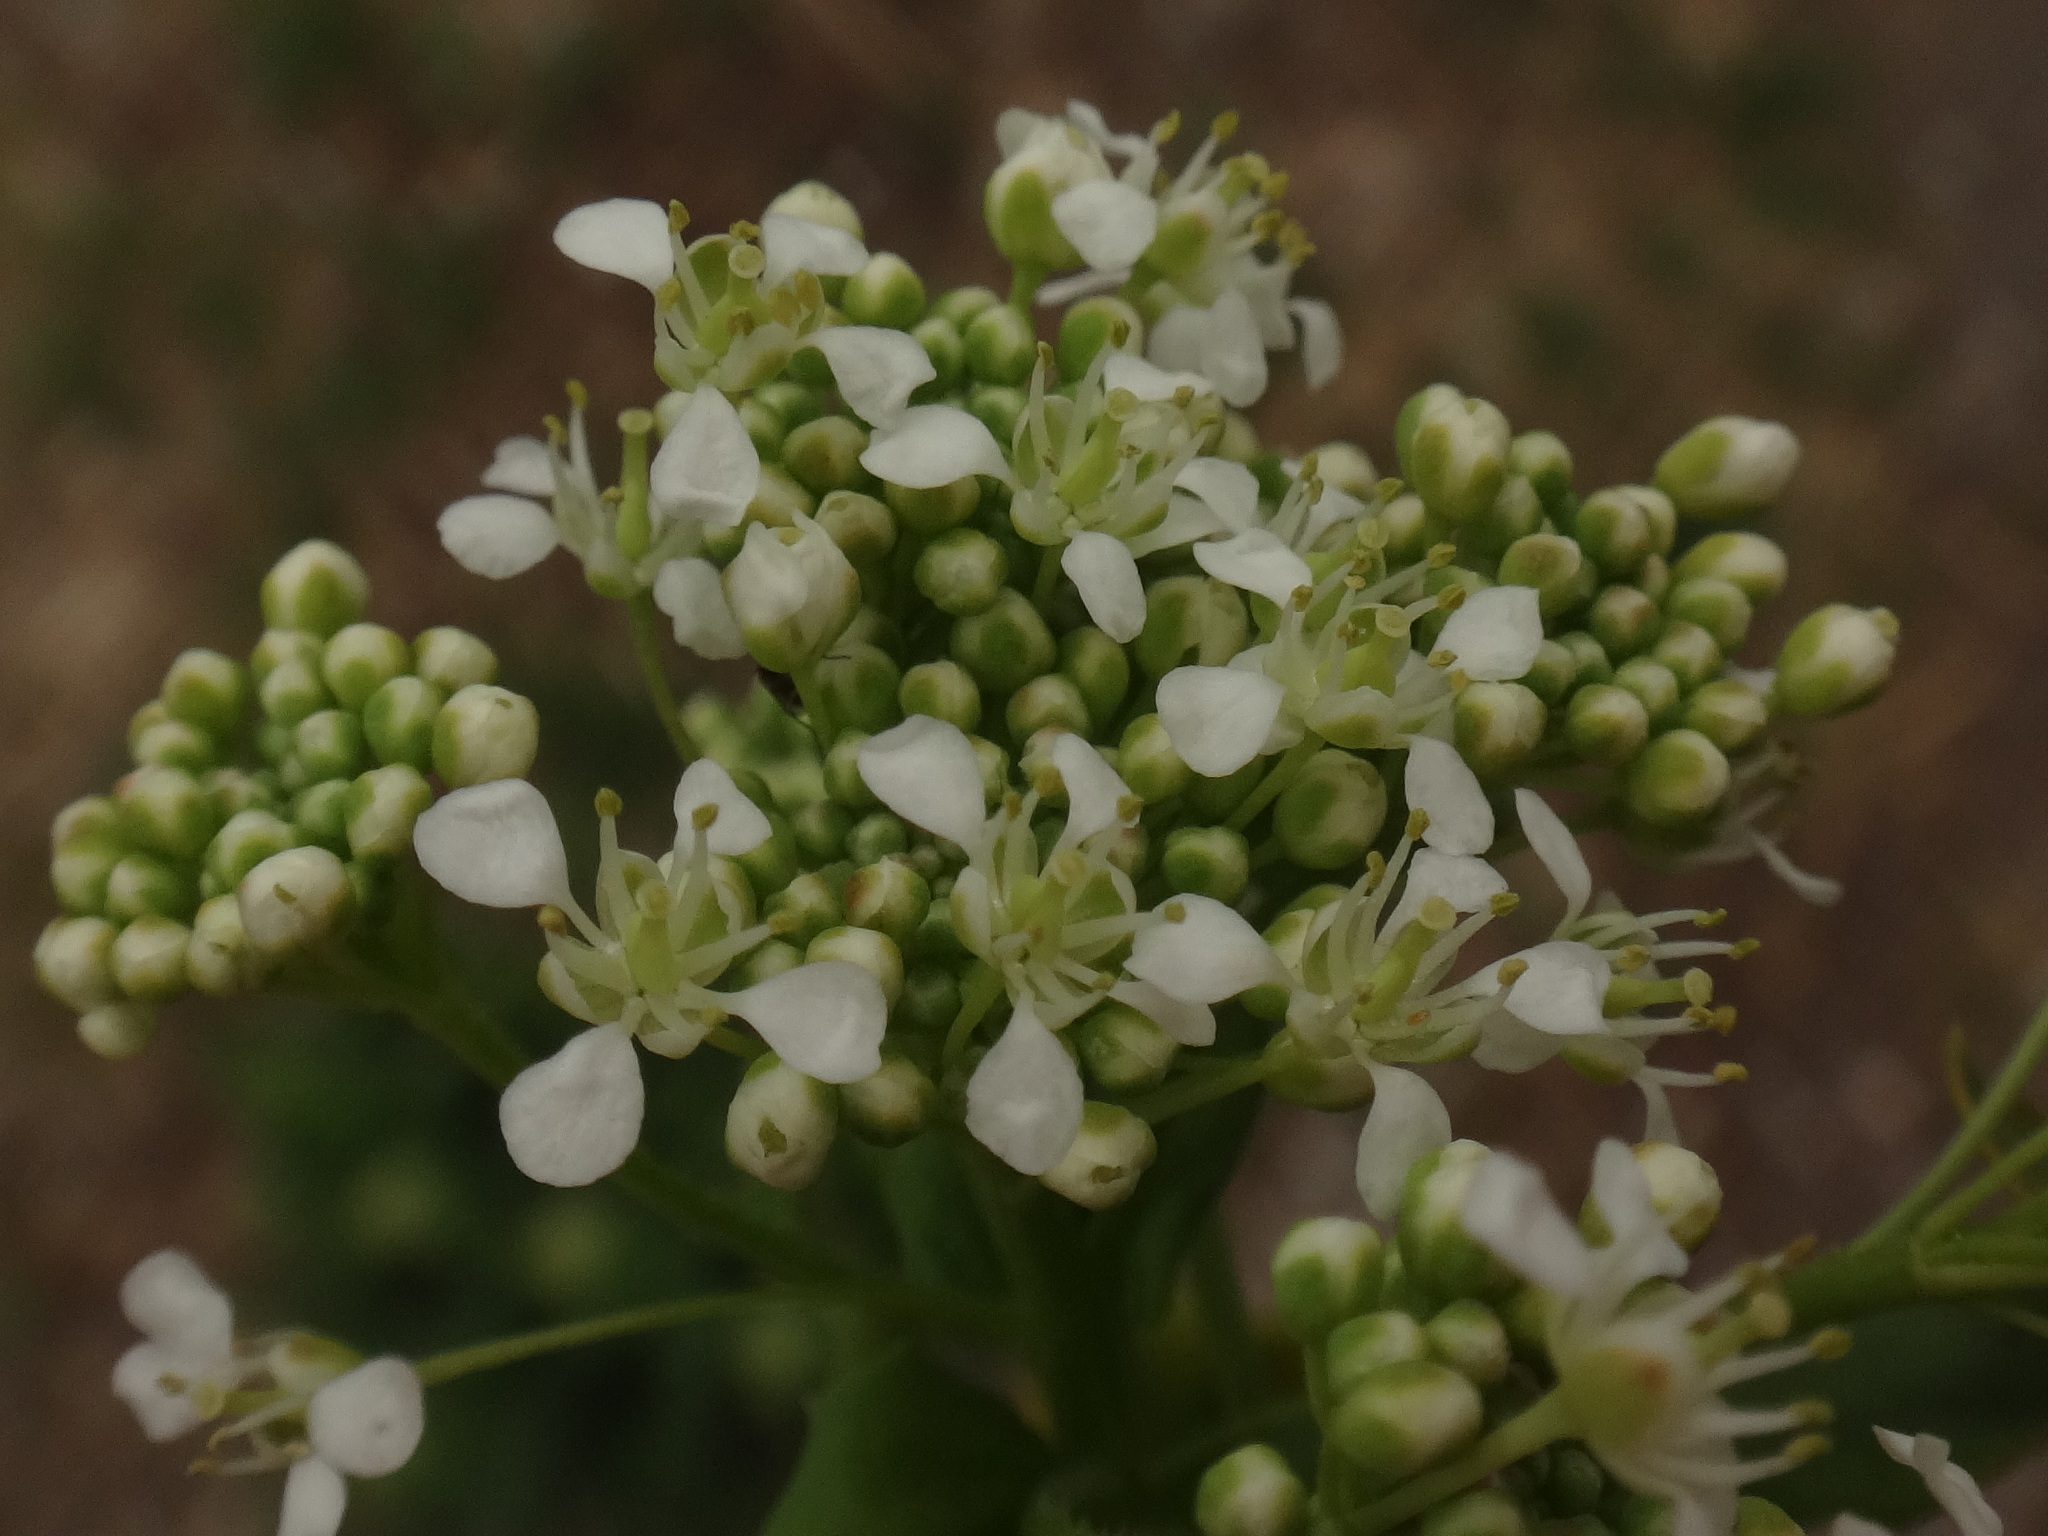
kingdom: Plantae
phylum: Tracheophyta
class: Magnoliopsida
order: Brassicales
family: Brassicaceae
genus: Lepidium
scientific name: Lepidium draba
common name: Hoary cress
